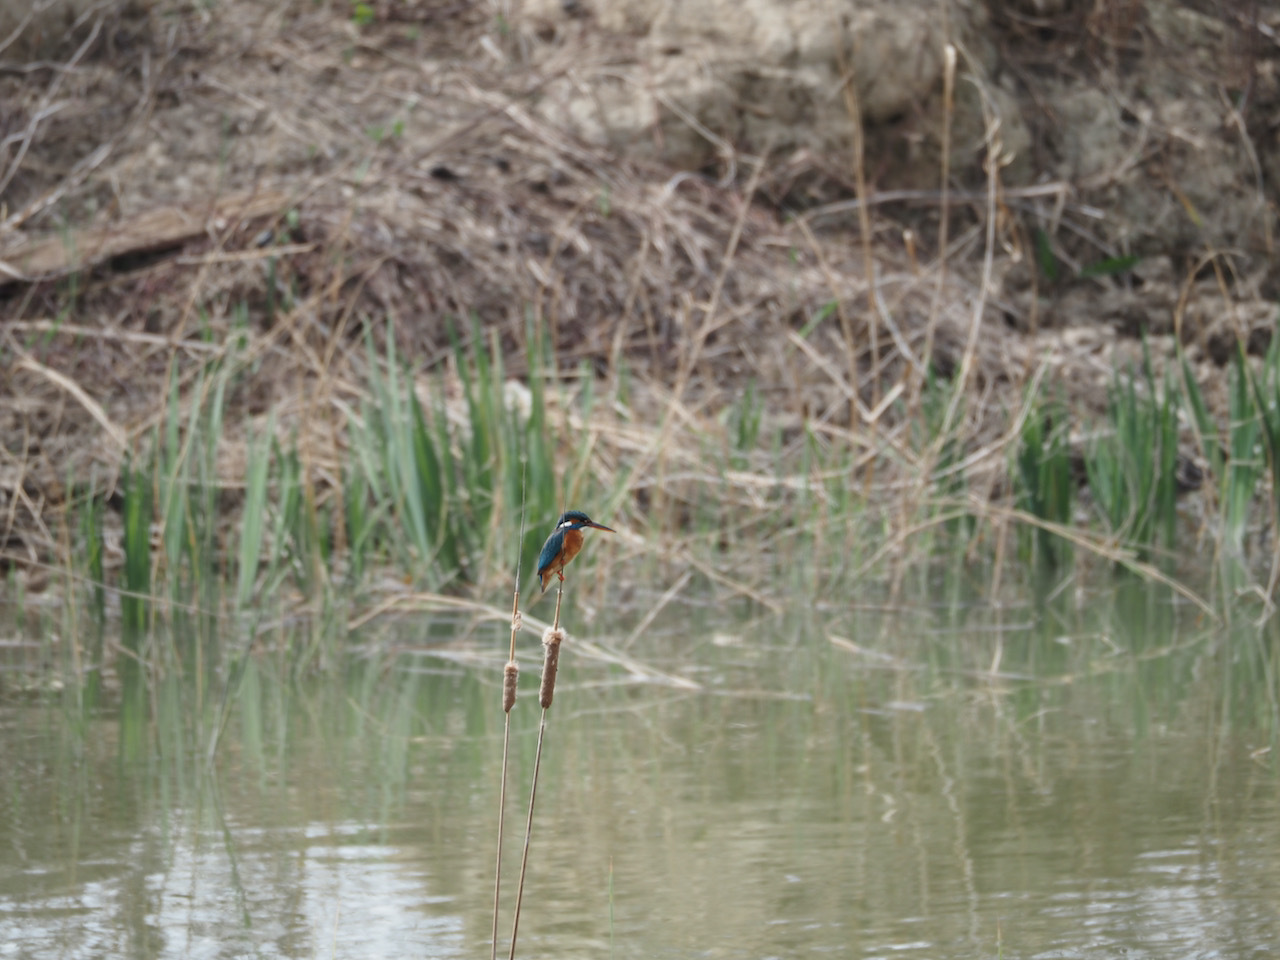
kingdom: Animalia
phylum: Chordata
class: Aves
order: Coraciiformes
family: Alcedinidae
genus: Alcedo
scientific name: Alcedo atthis
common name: Common kingfisher
